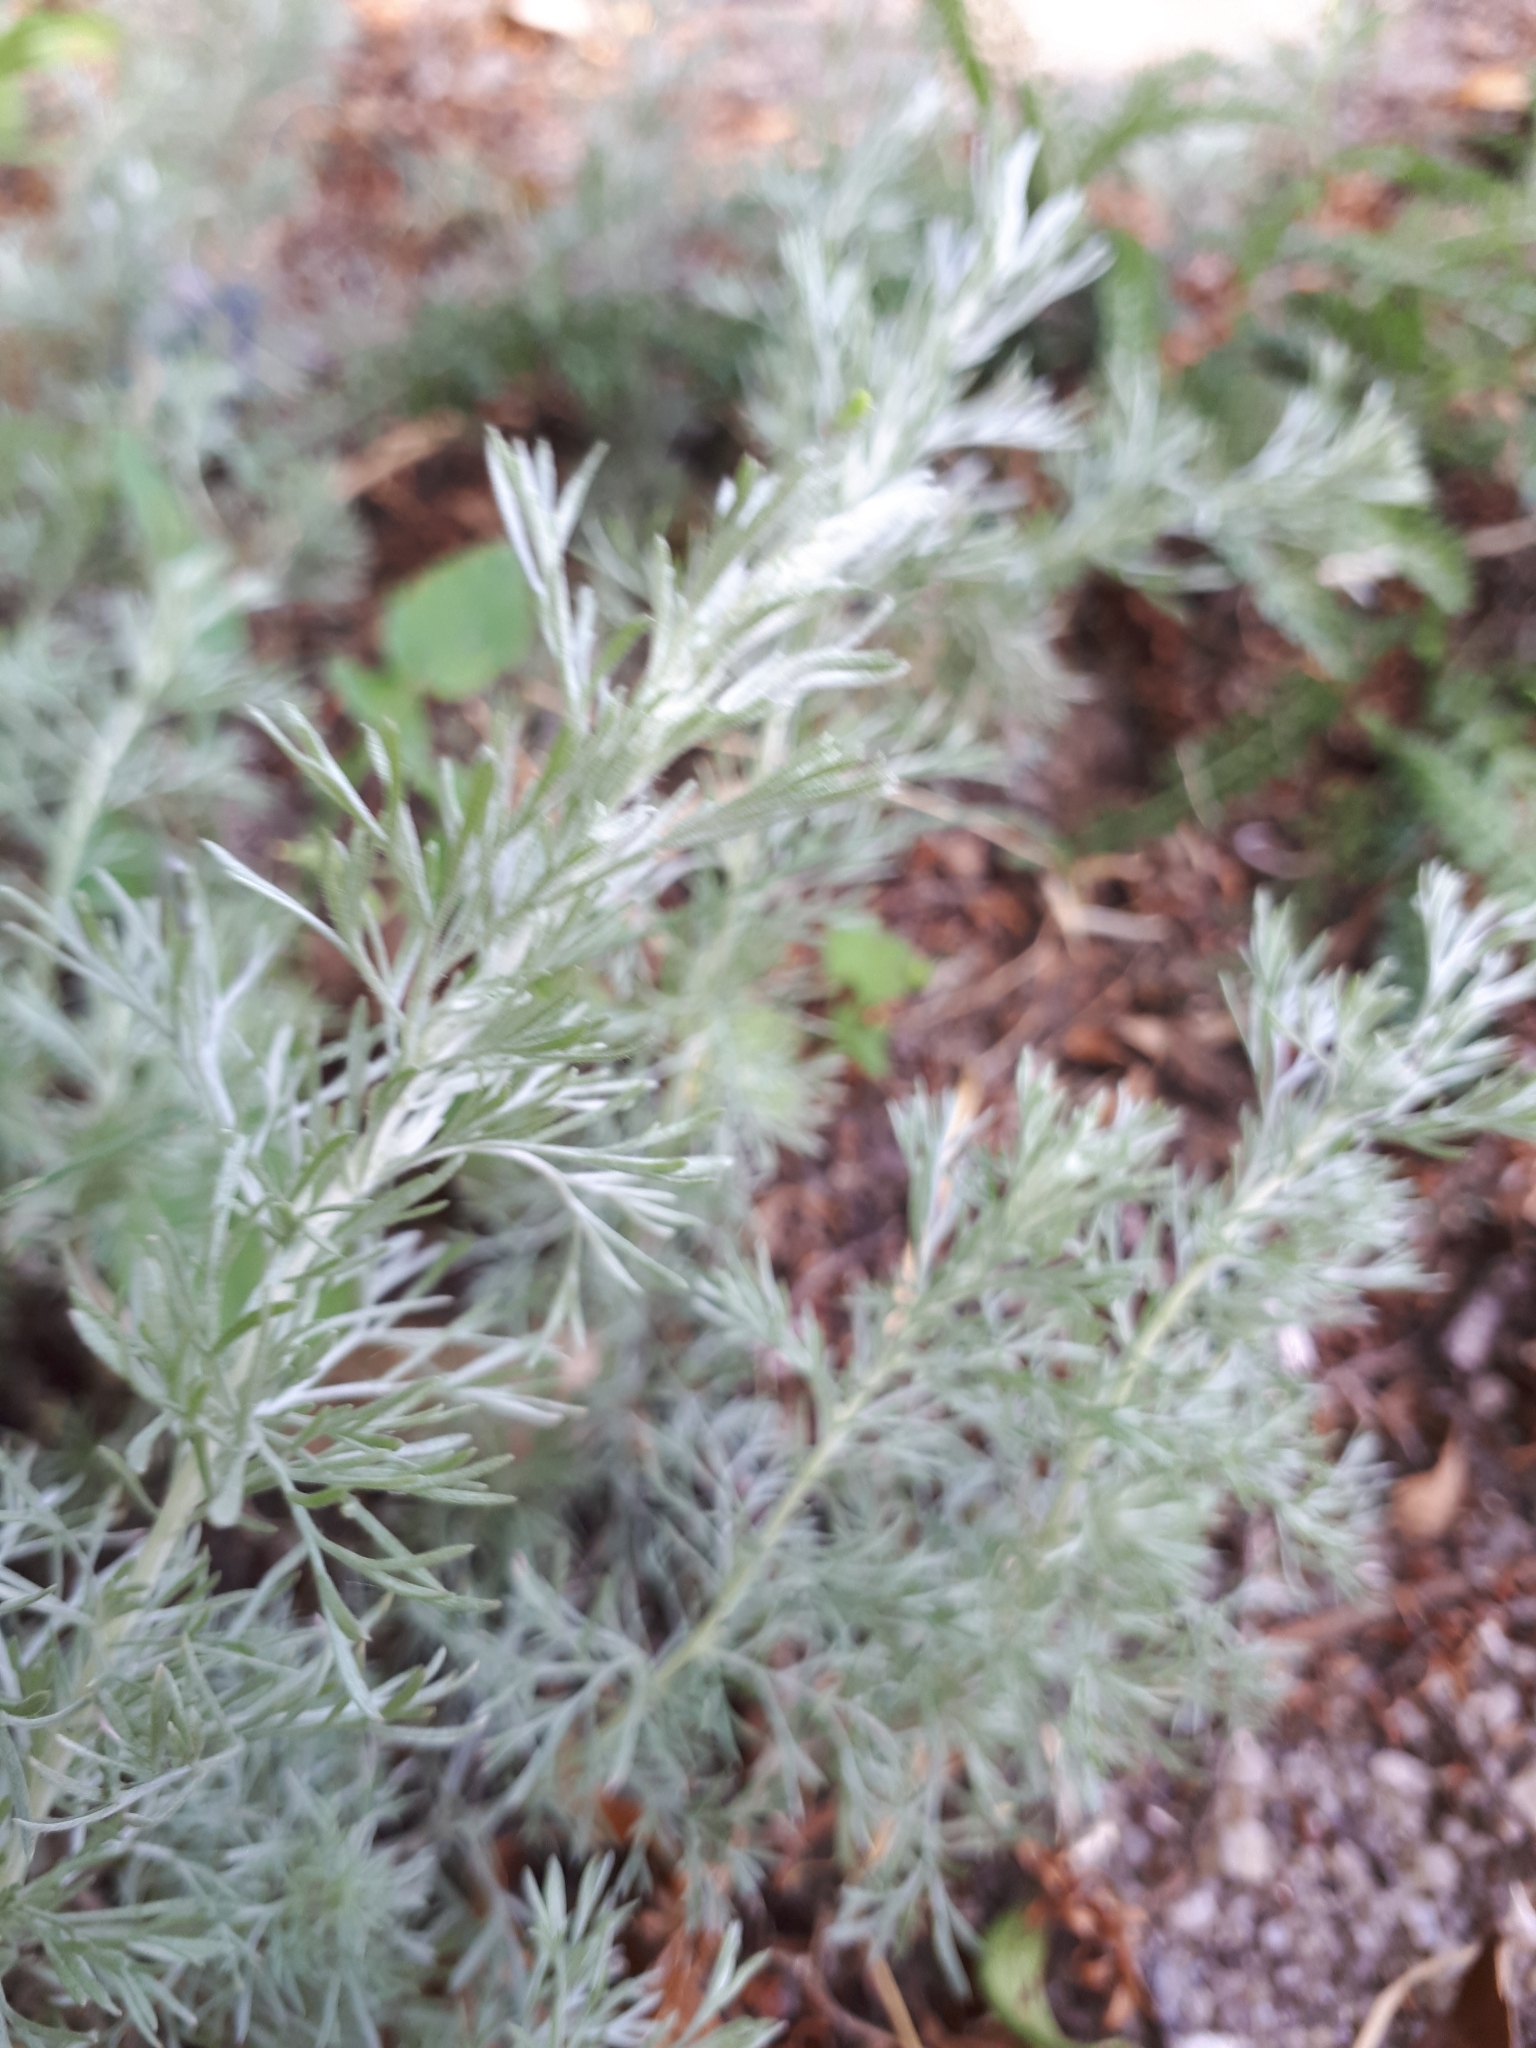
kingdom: Plantae
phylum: Tracheophyta
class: Magnoliopsida
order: Asterales
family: Asteraceae
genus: Artemisia
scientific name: Artemisia austriaca
